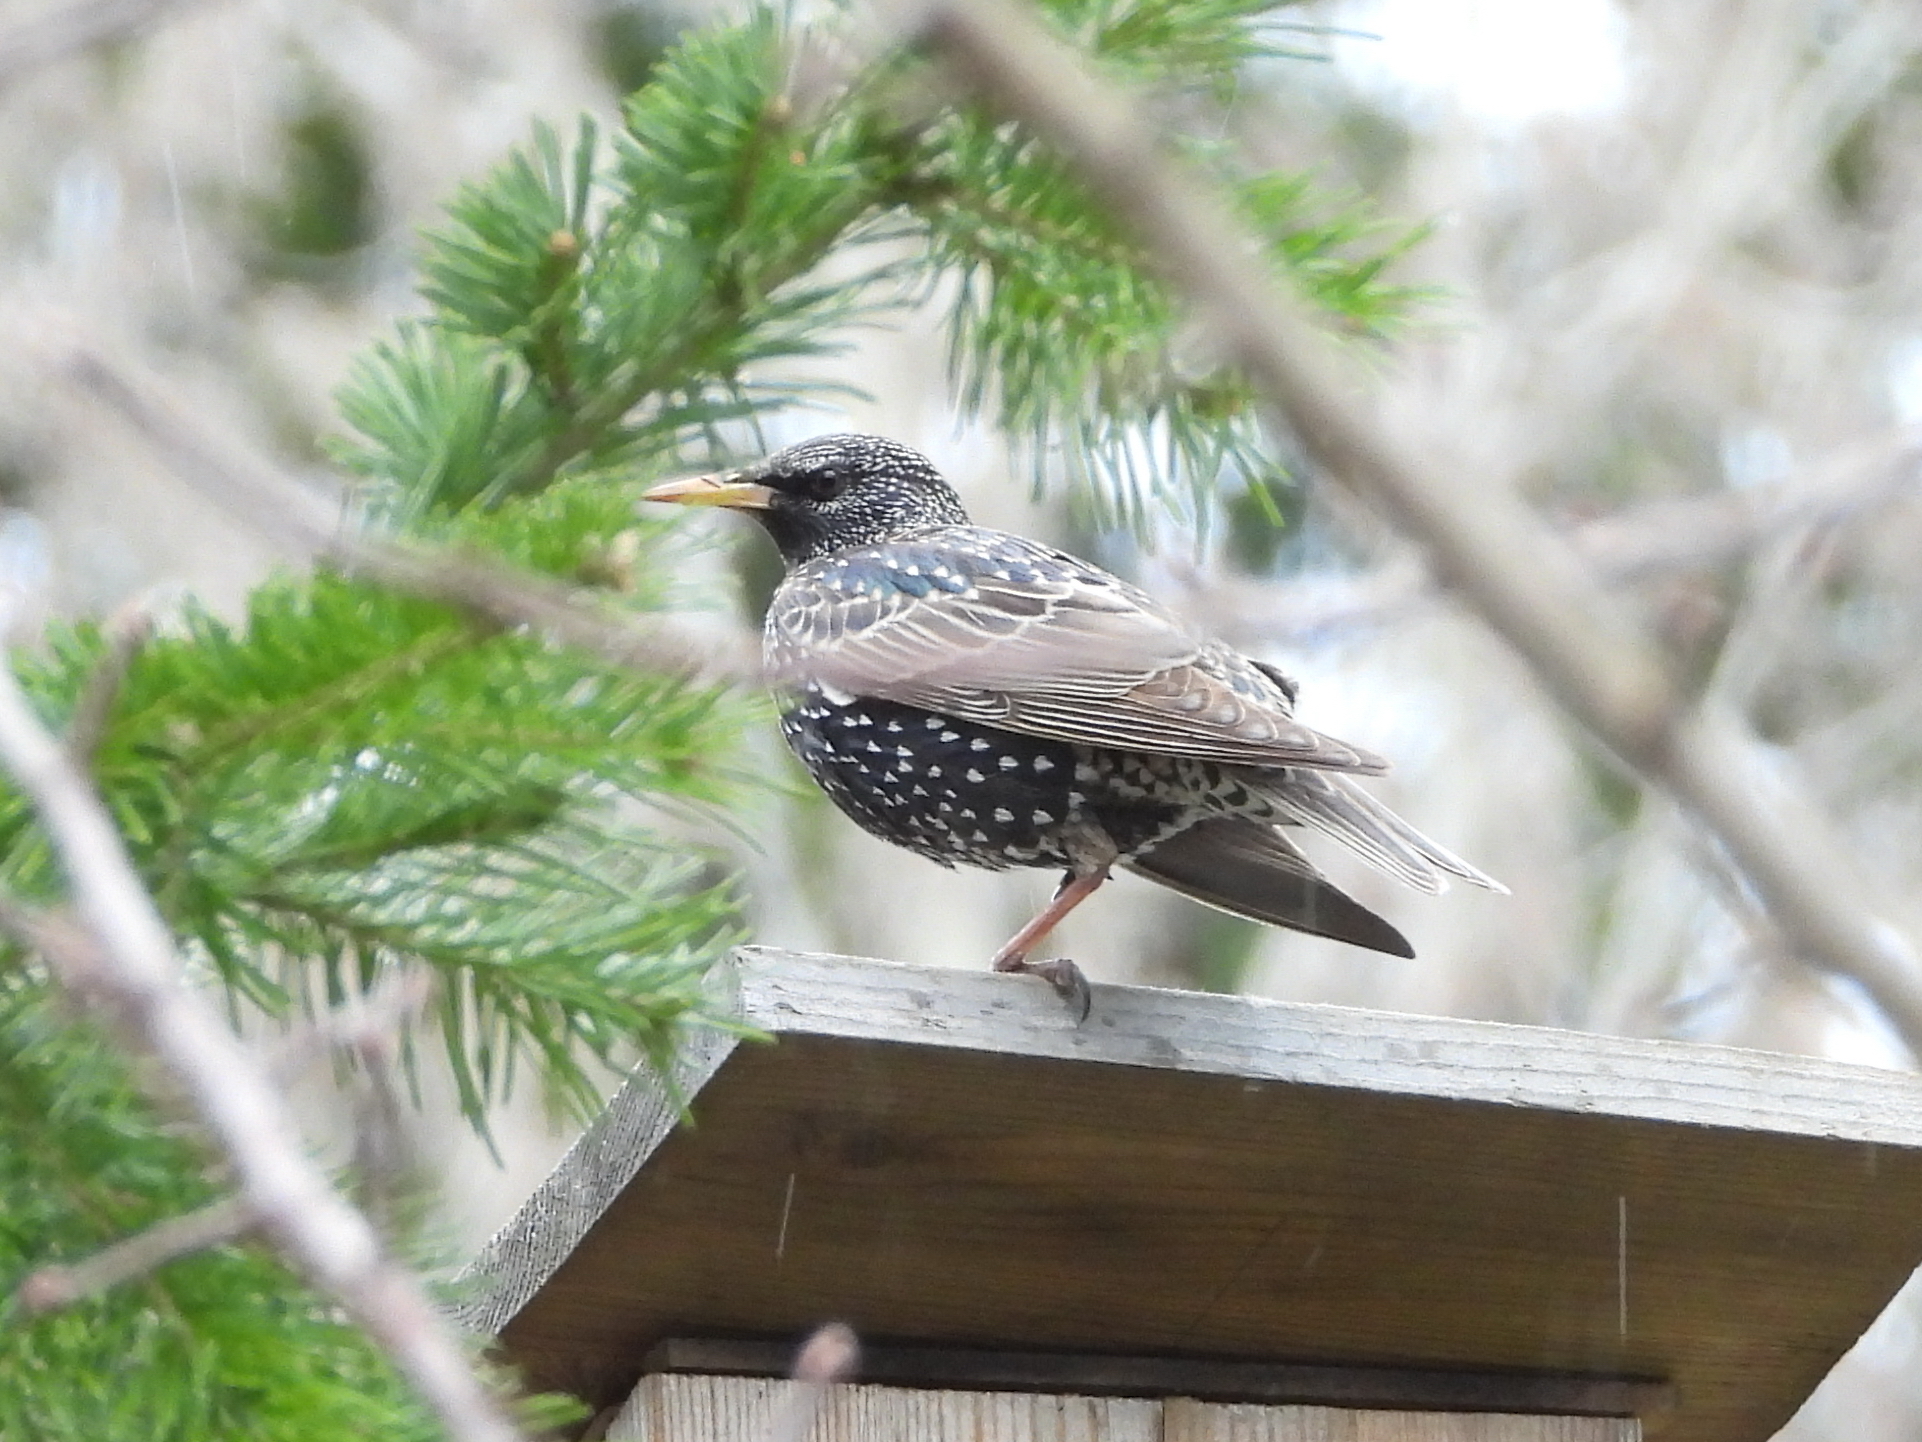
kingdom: Animalia
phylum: Chordata
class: Aves
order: Passeriformes
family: Sturnidae
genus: Sturnus
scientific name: Sturnus vulgaris
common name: Common starling
